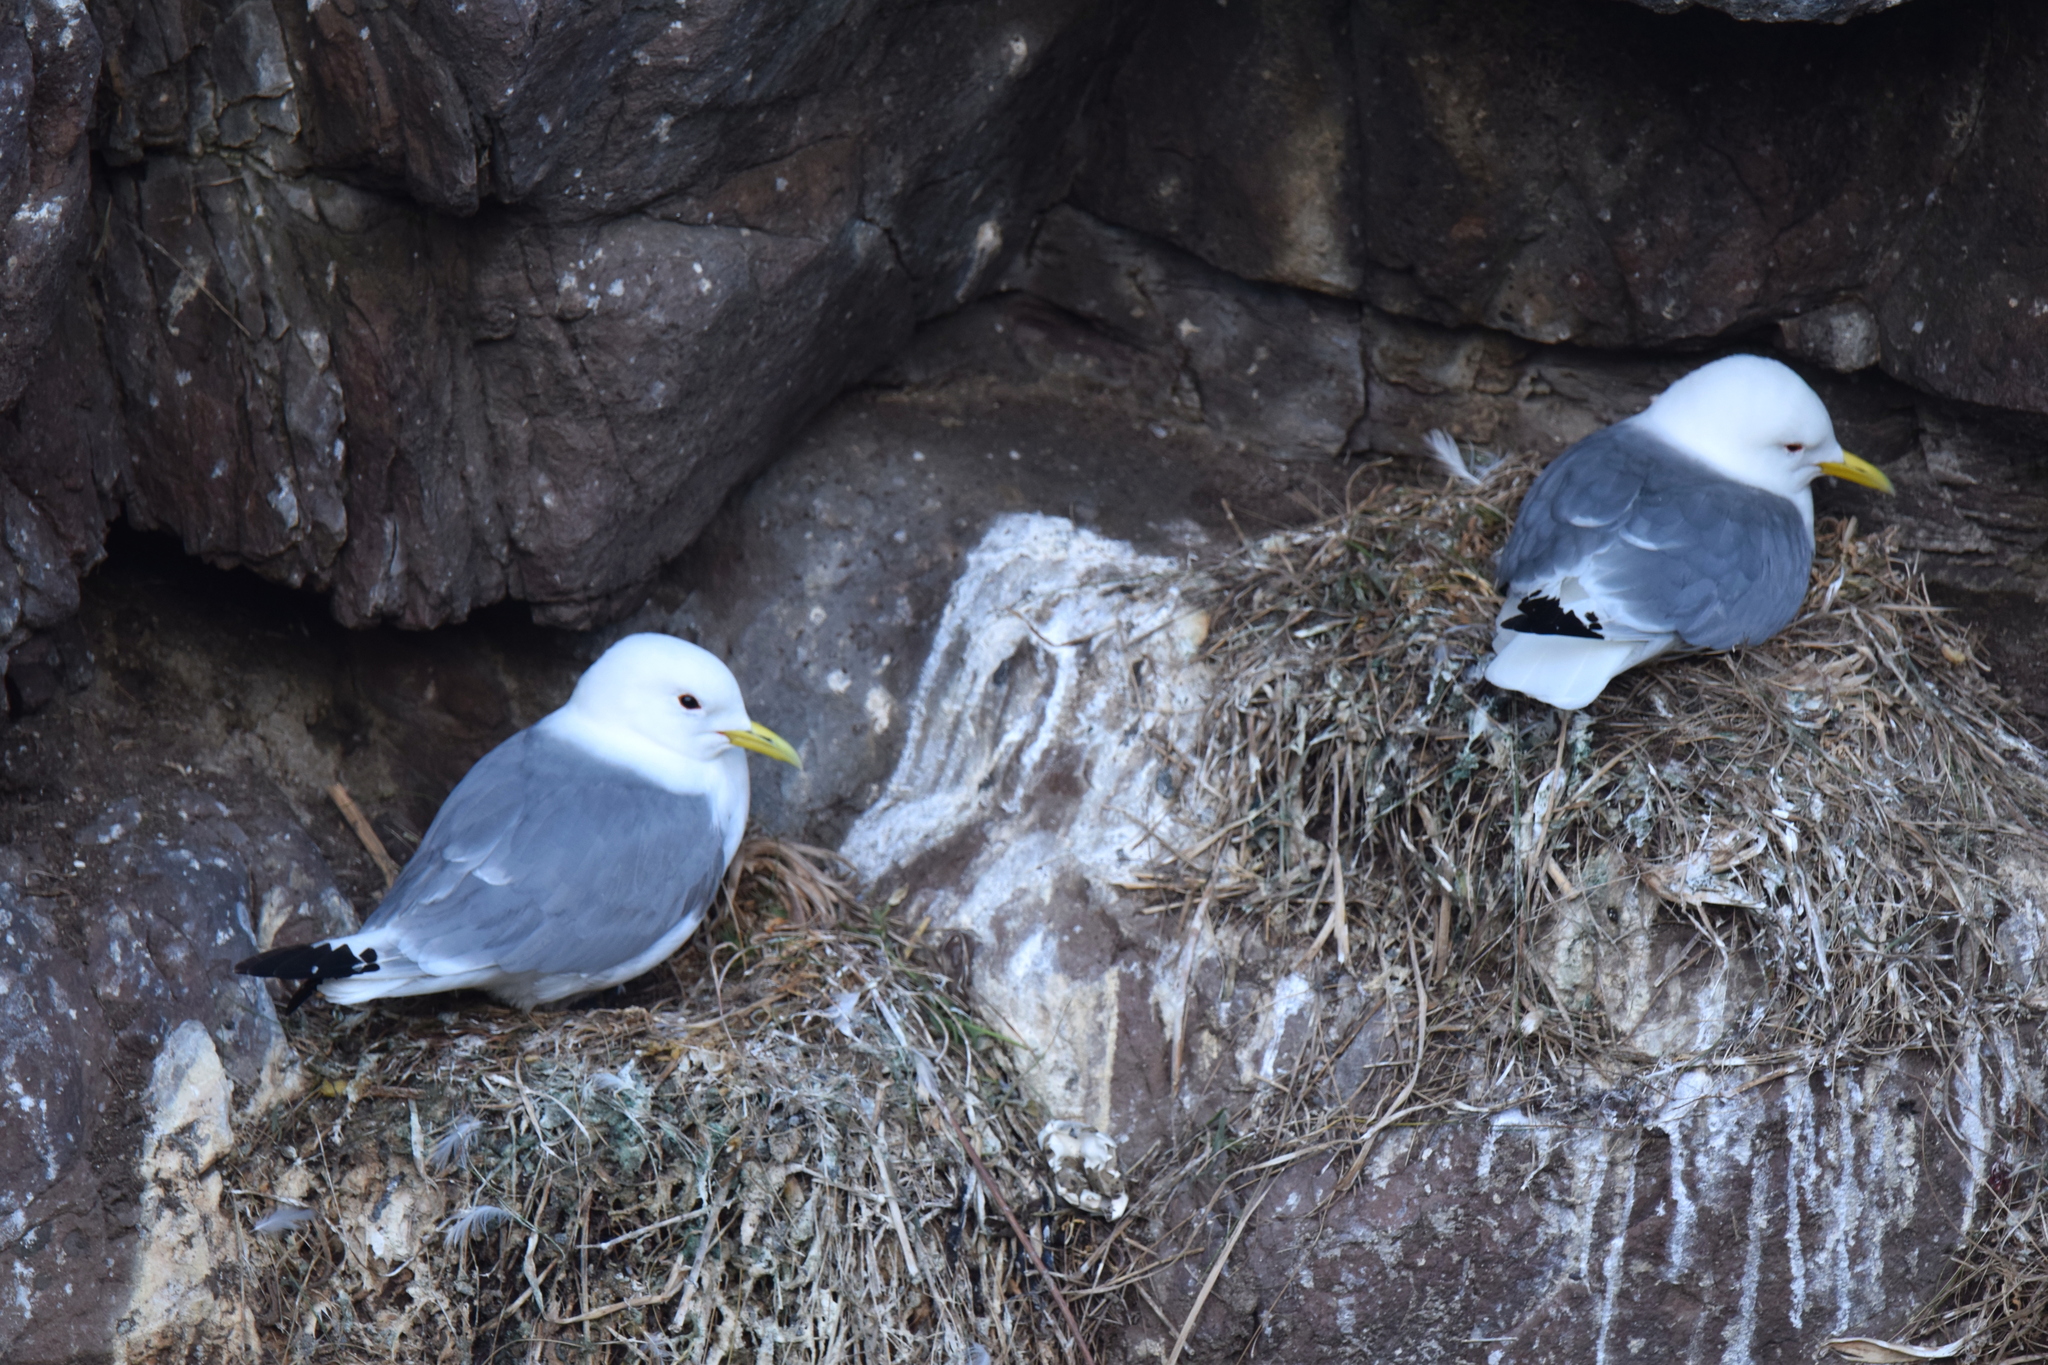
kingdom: Animalia
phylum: Chordata
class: Aves
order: Charadriiformes
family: Laridae
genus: Rissa
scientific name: Rissa tridactyla
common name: Black-legged kittiwake
